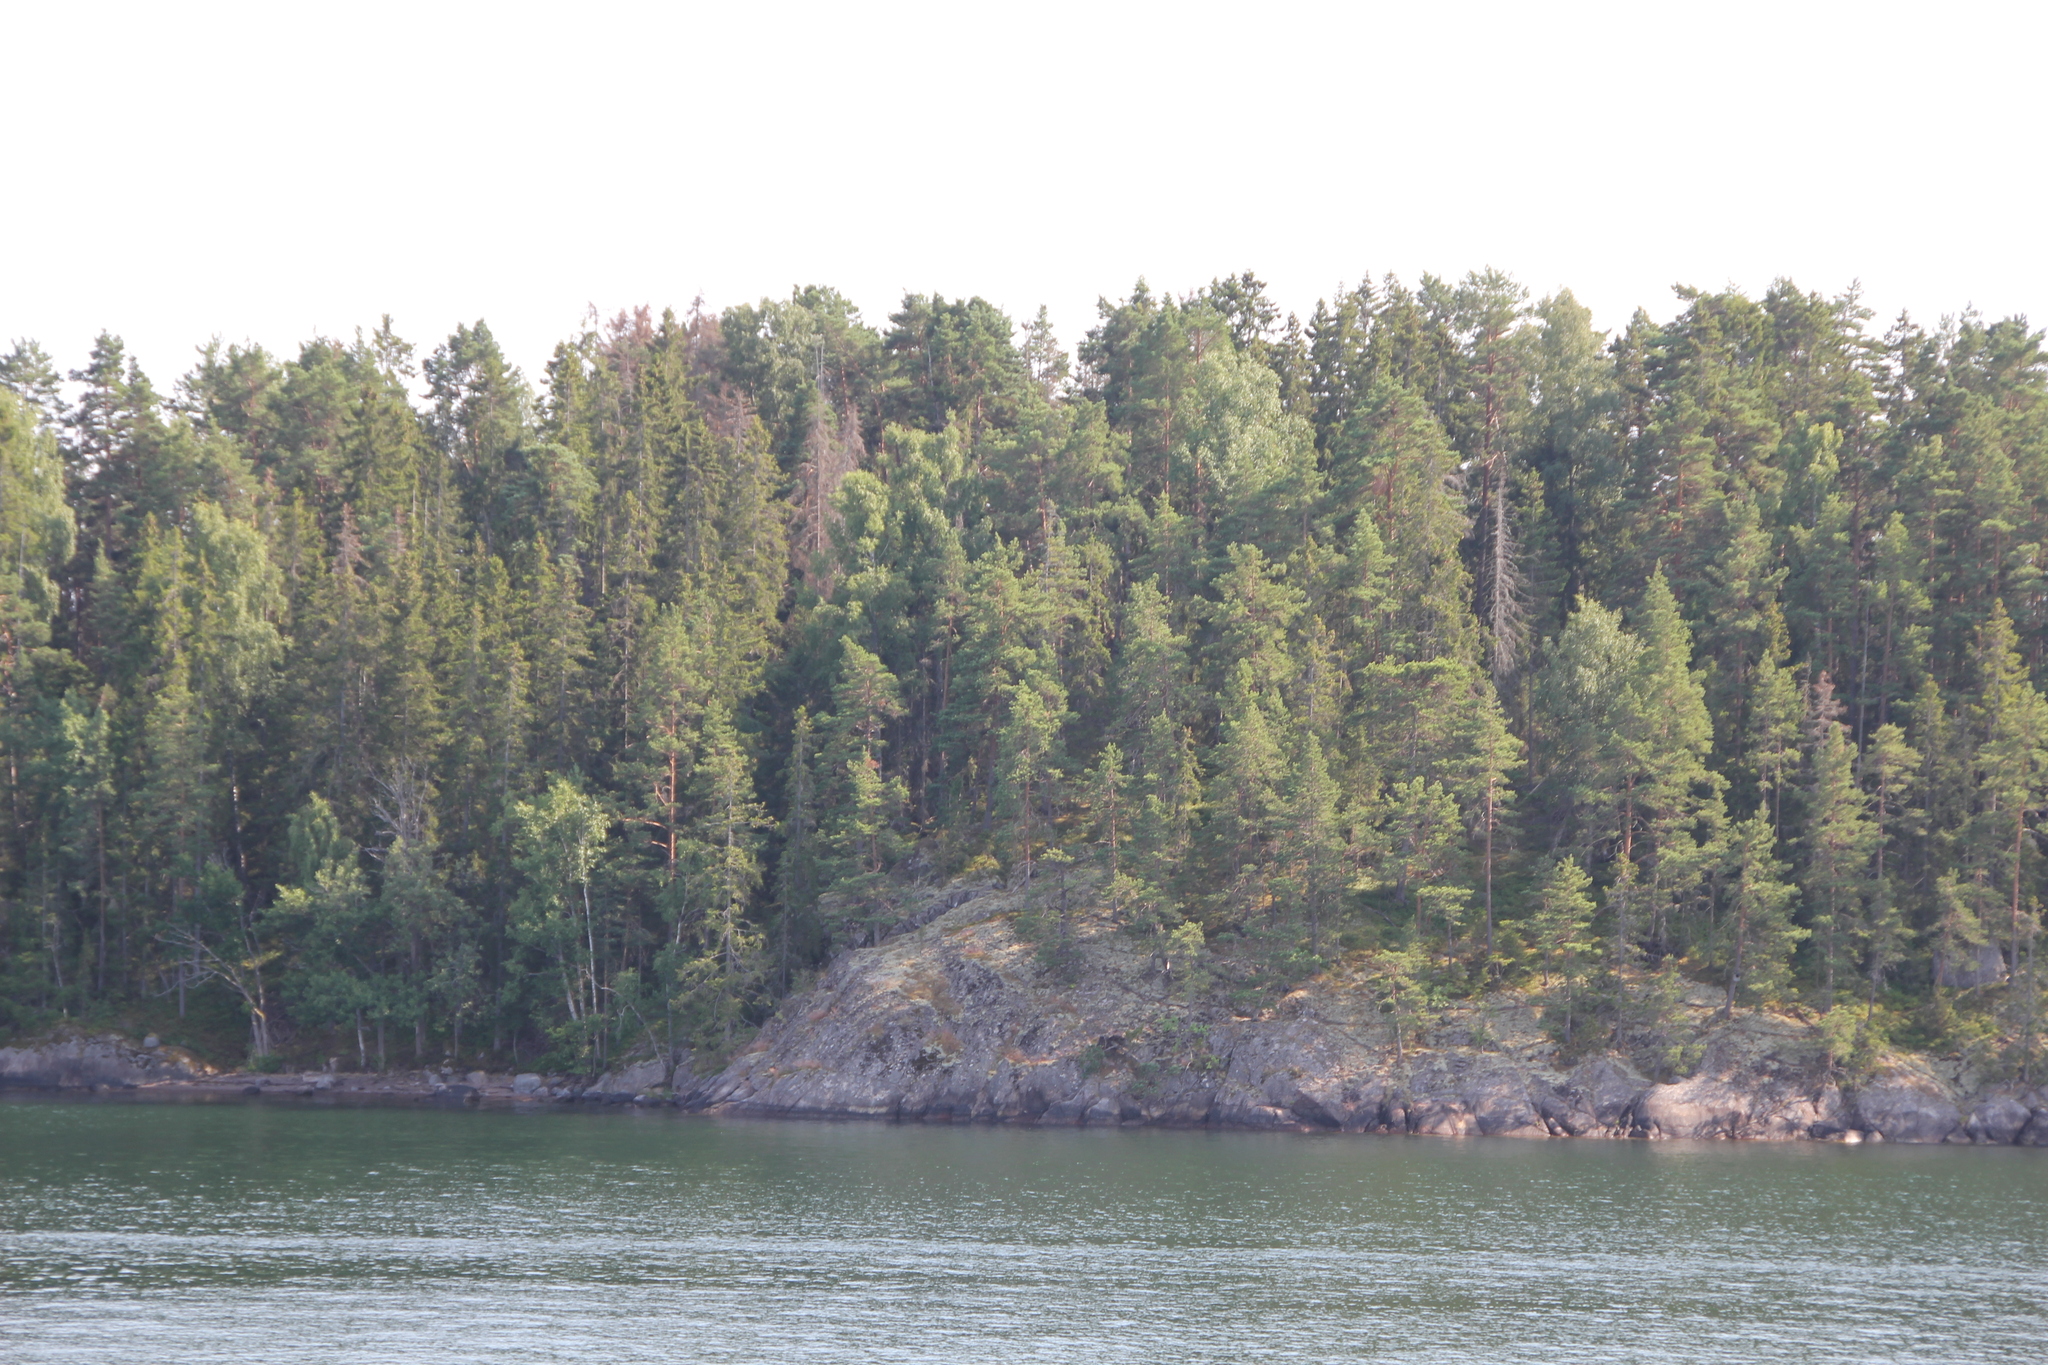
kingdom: Plantae
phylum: Tracheophyta
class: Pinopsida
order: Pinales
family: Pinaceae
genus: Pinus
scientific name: Pinus sylvestris
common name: Scots pine
